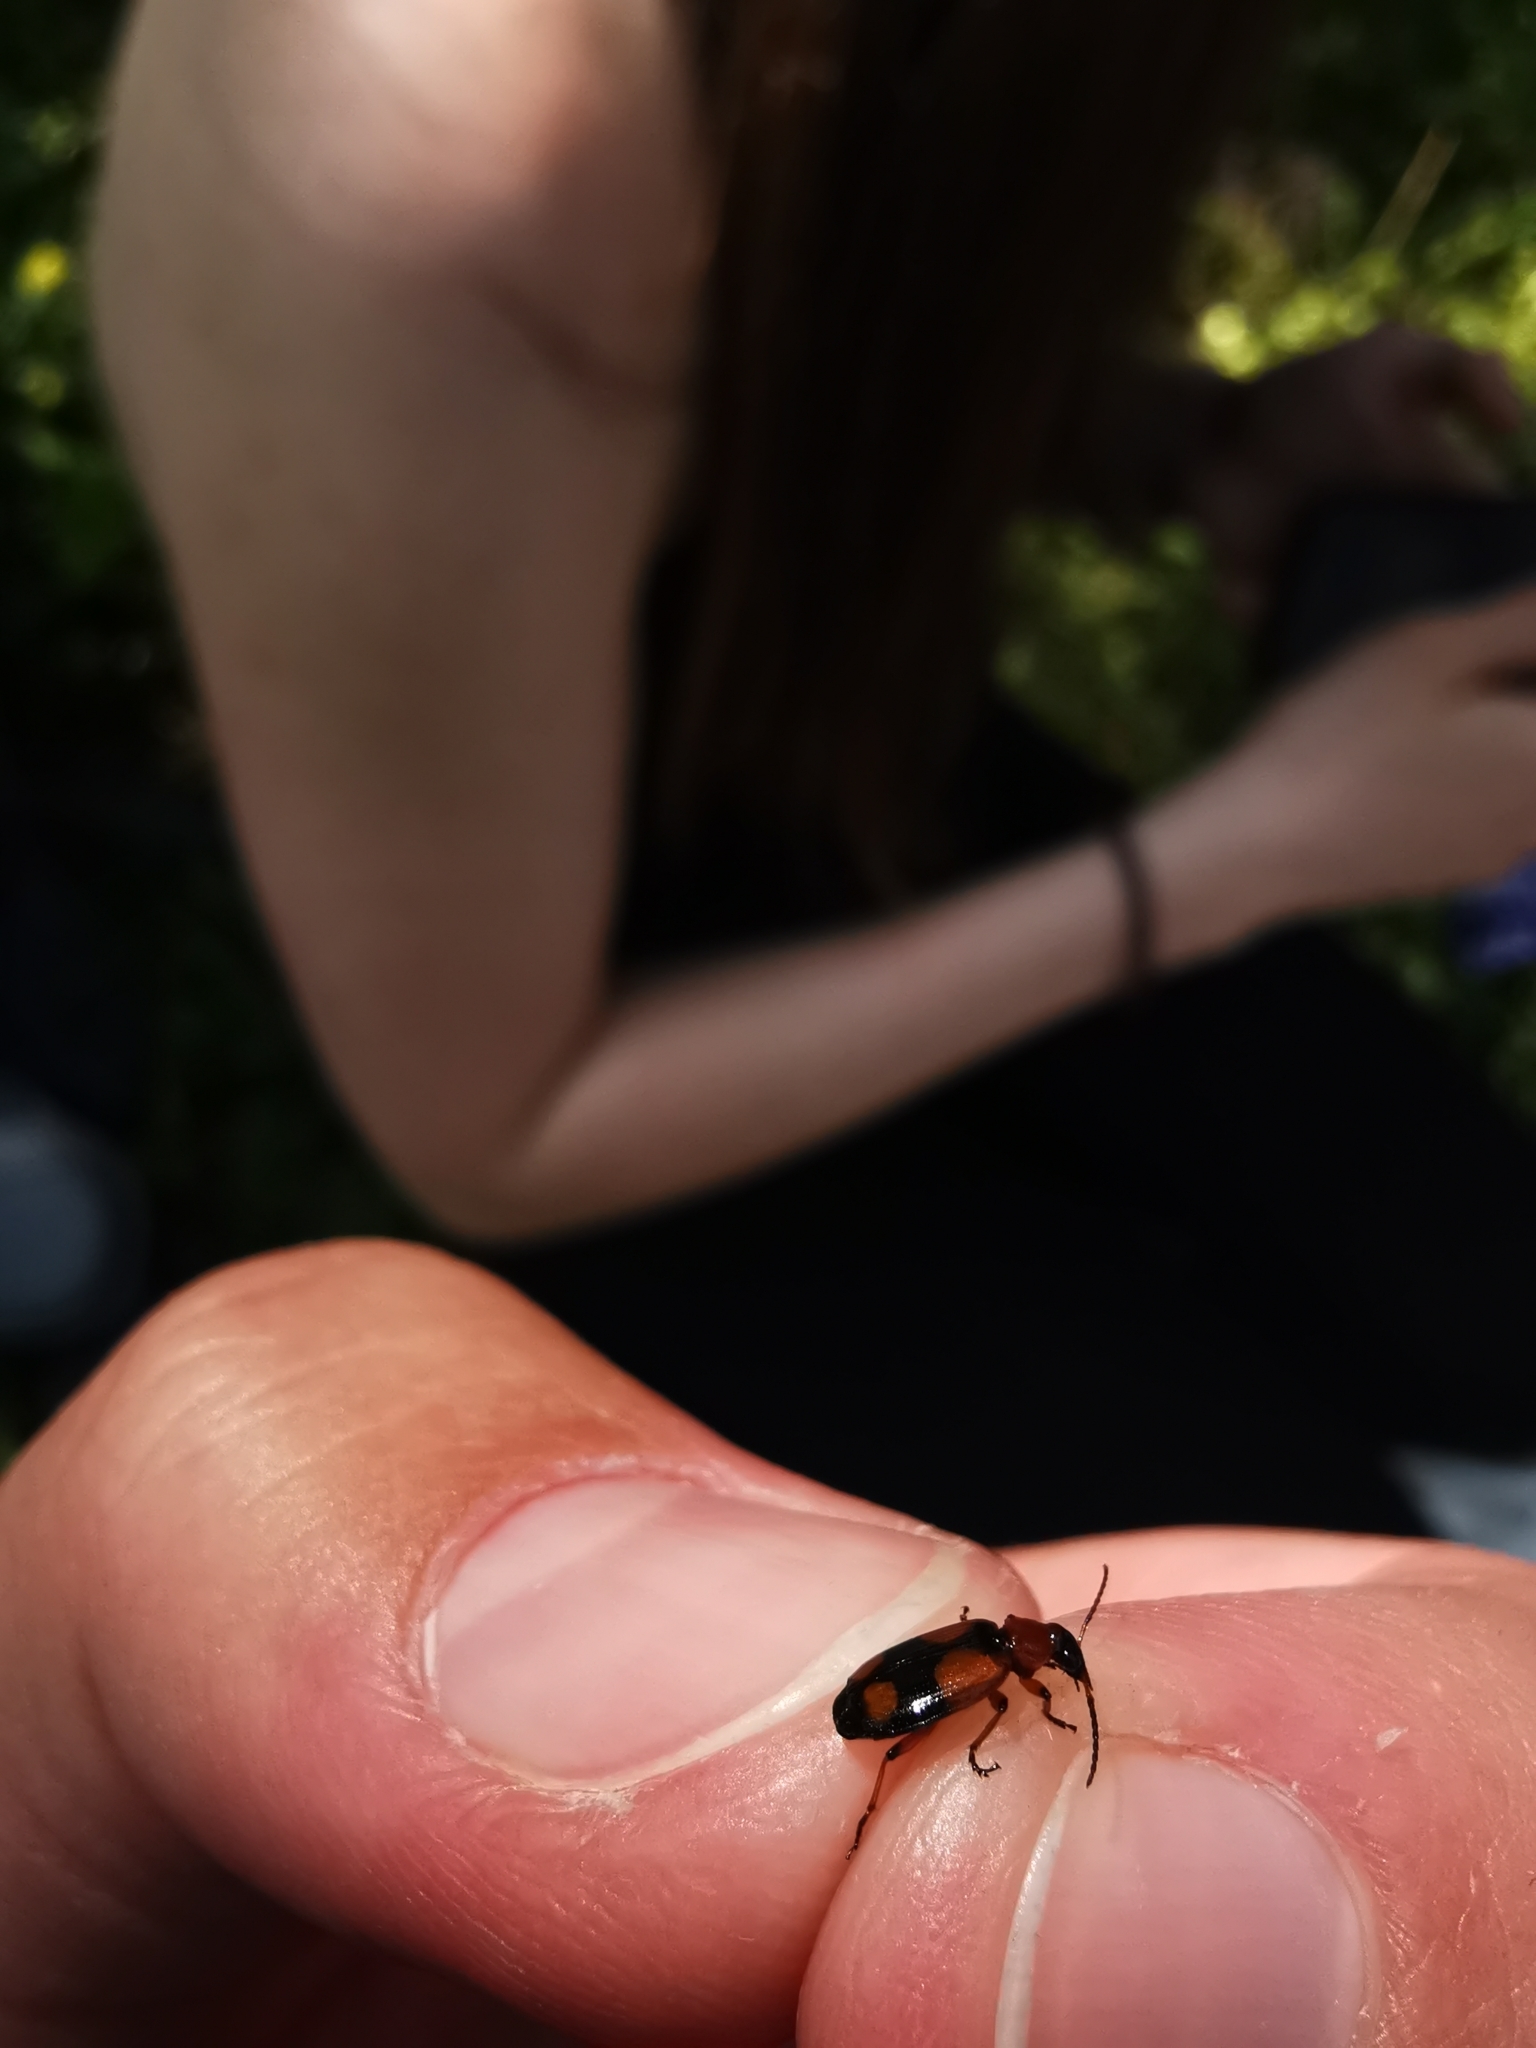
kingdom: Animalia
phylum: Arthropoda
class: Insecta
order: Coleoptera
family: Carabidae
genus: Lebia
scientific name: Lebia cruxminor
